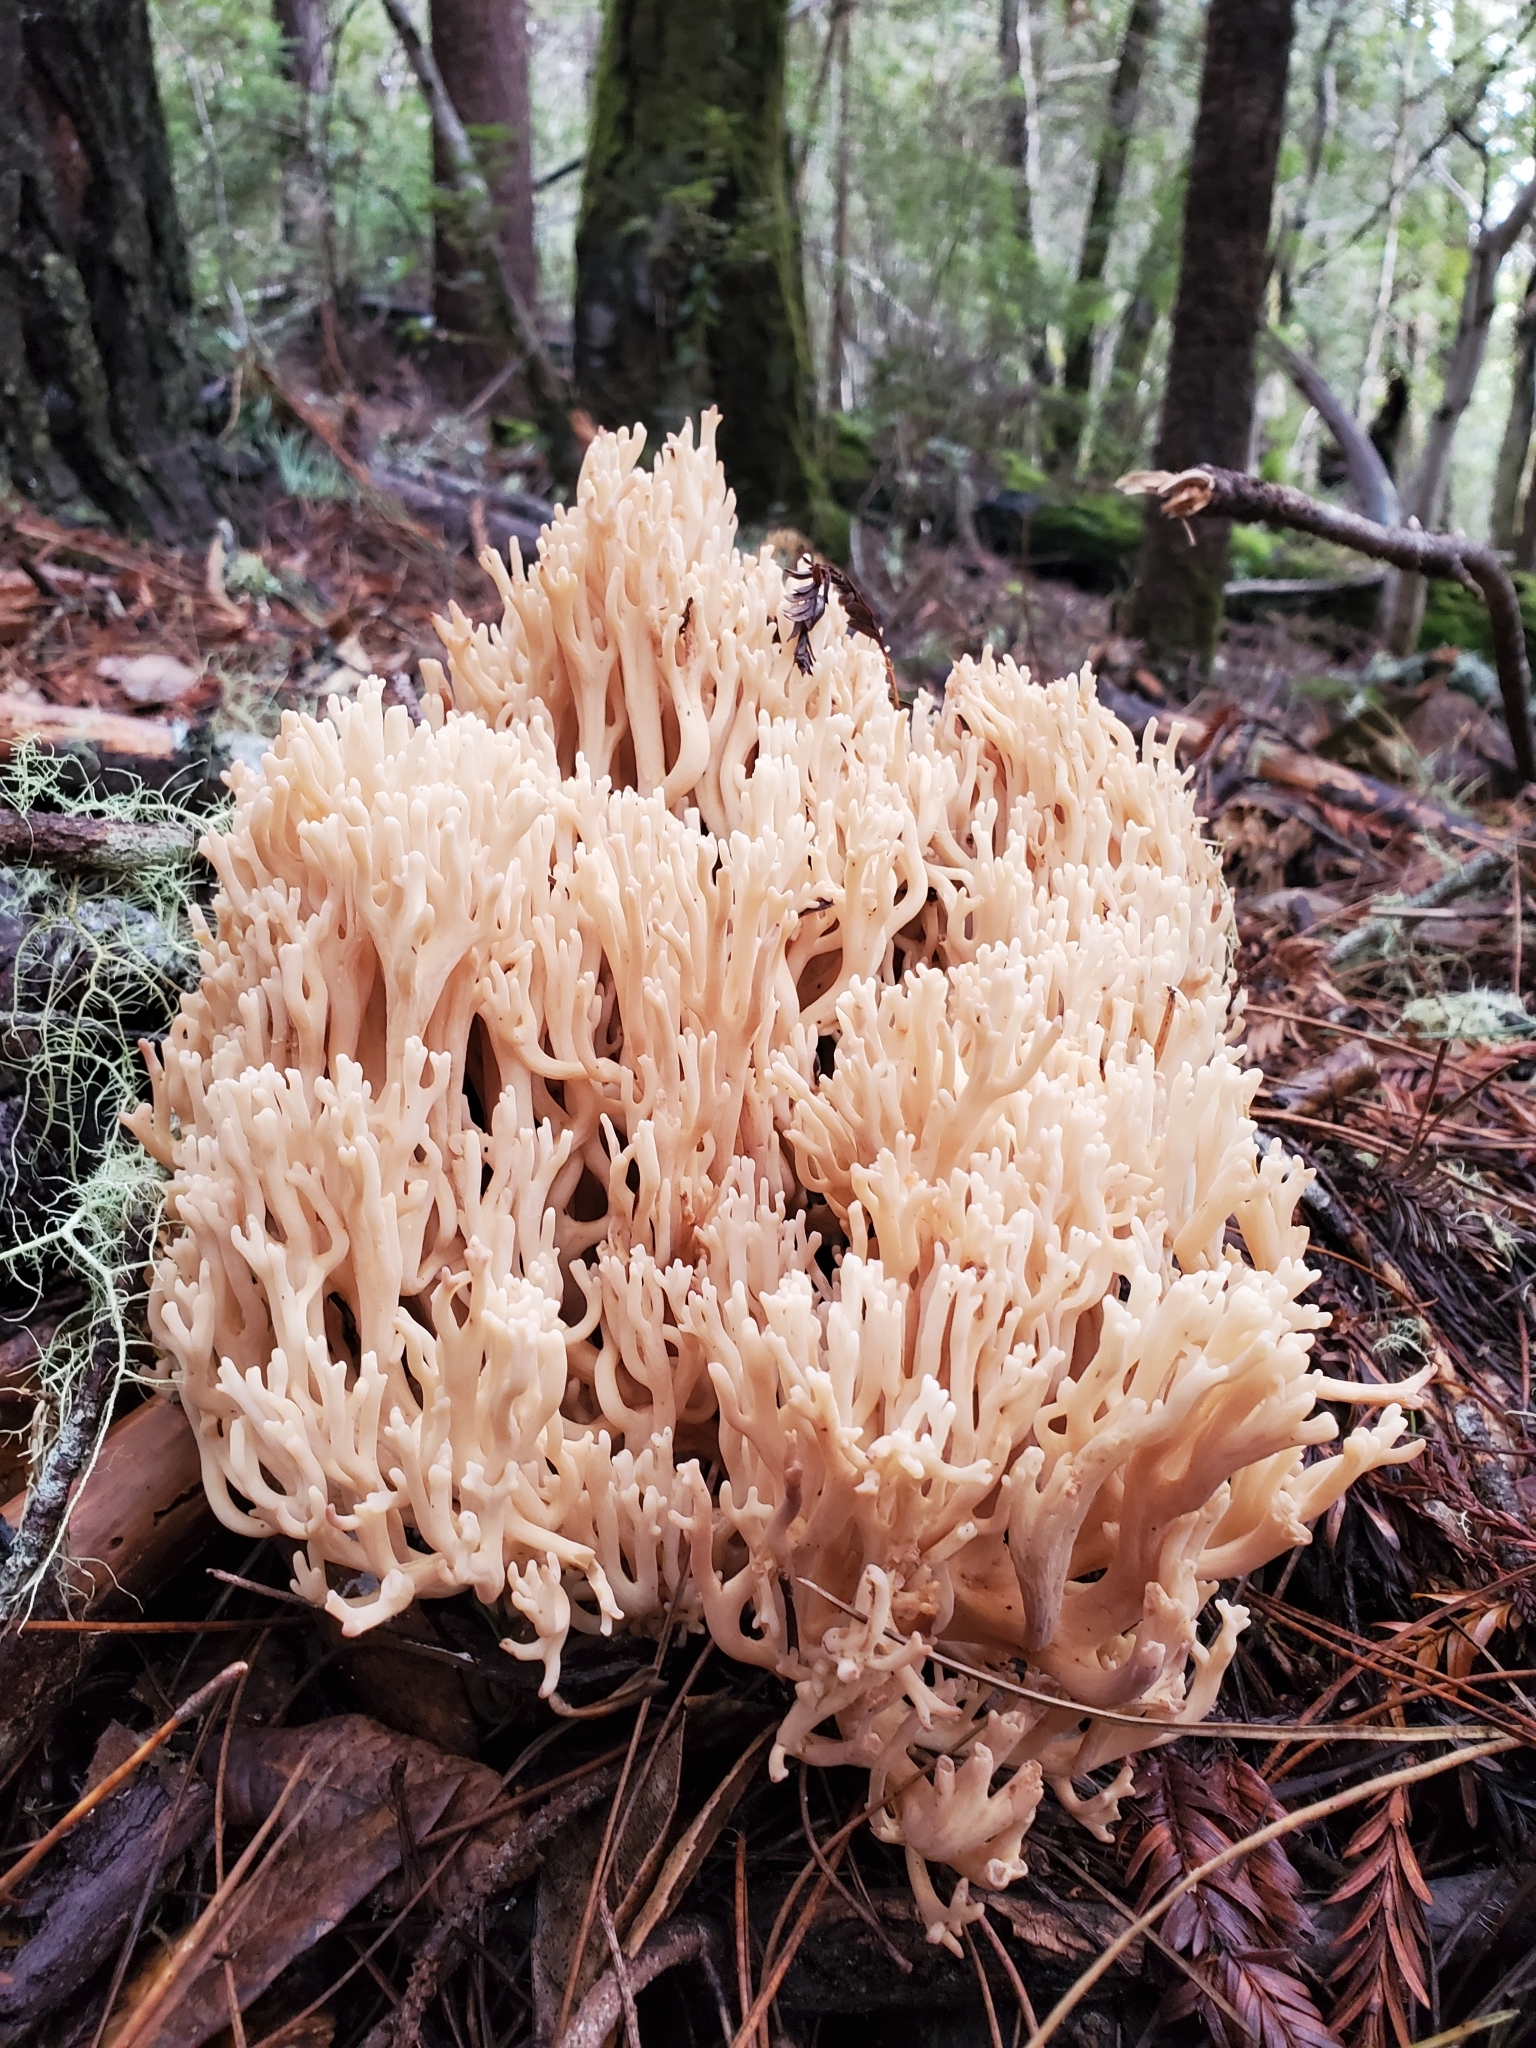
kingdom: Fungi
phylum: Basidiomycota
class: Agaricomycetes
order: Agaricales
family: Clavariaceae
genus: Ramariopsis
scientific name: Ramariopsis kunzei
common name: Ivory coral
